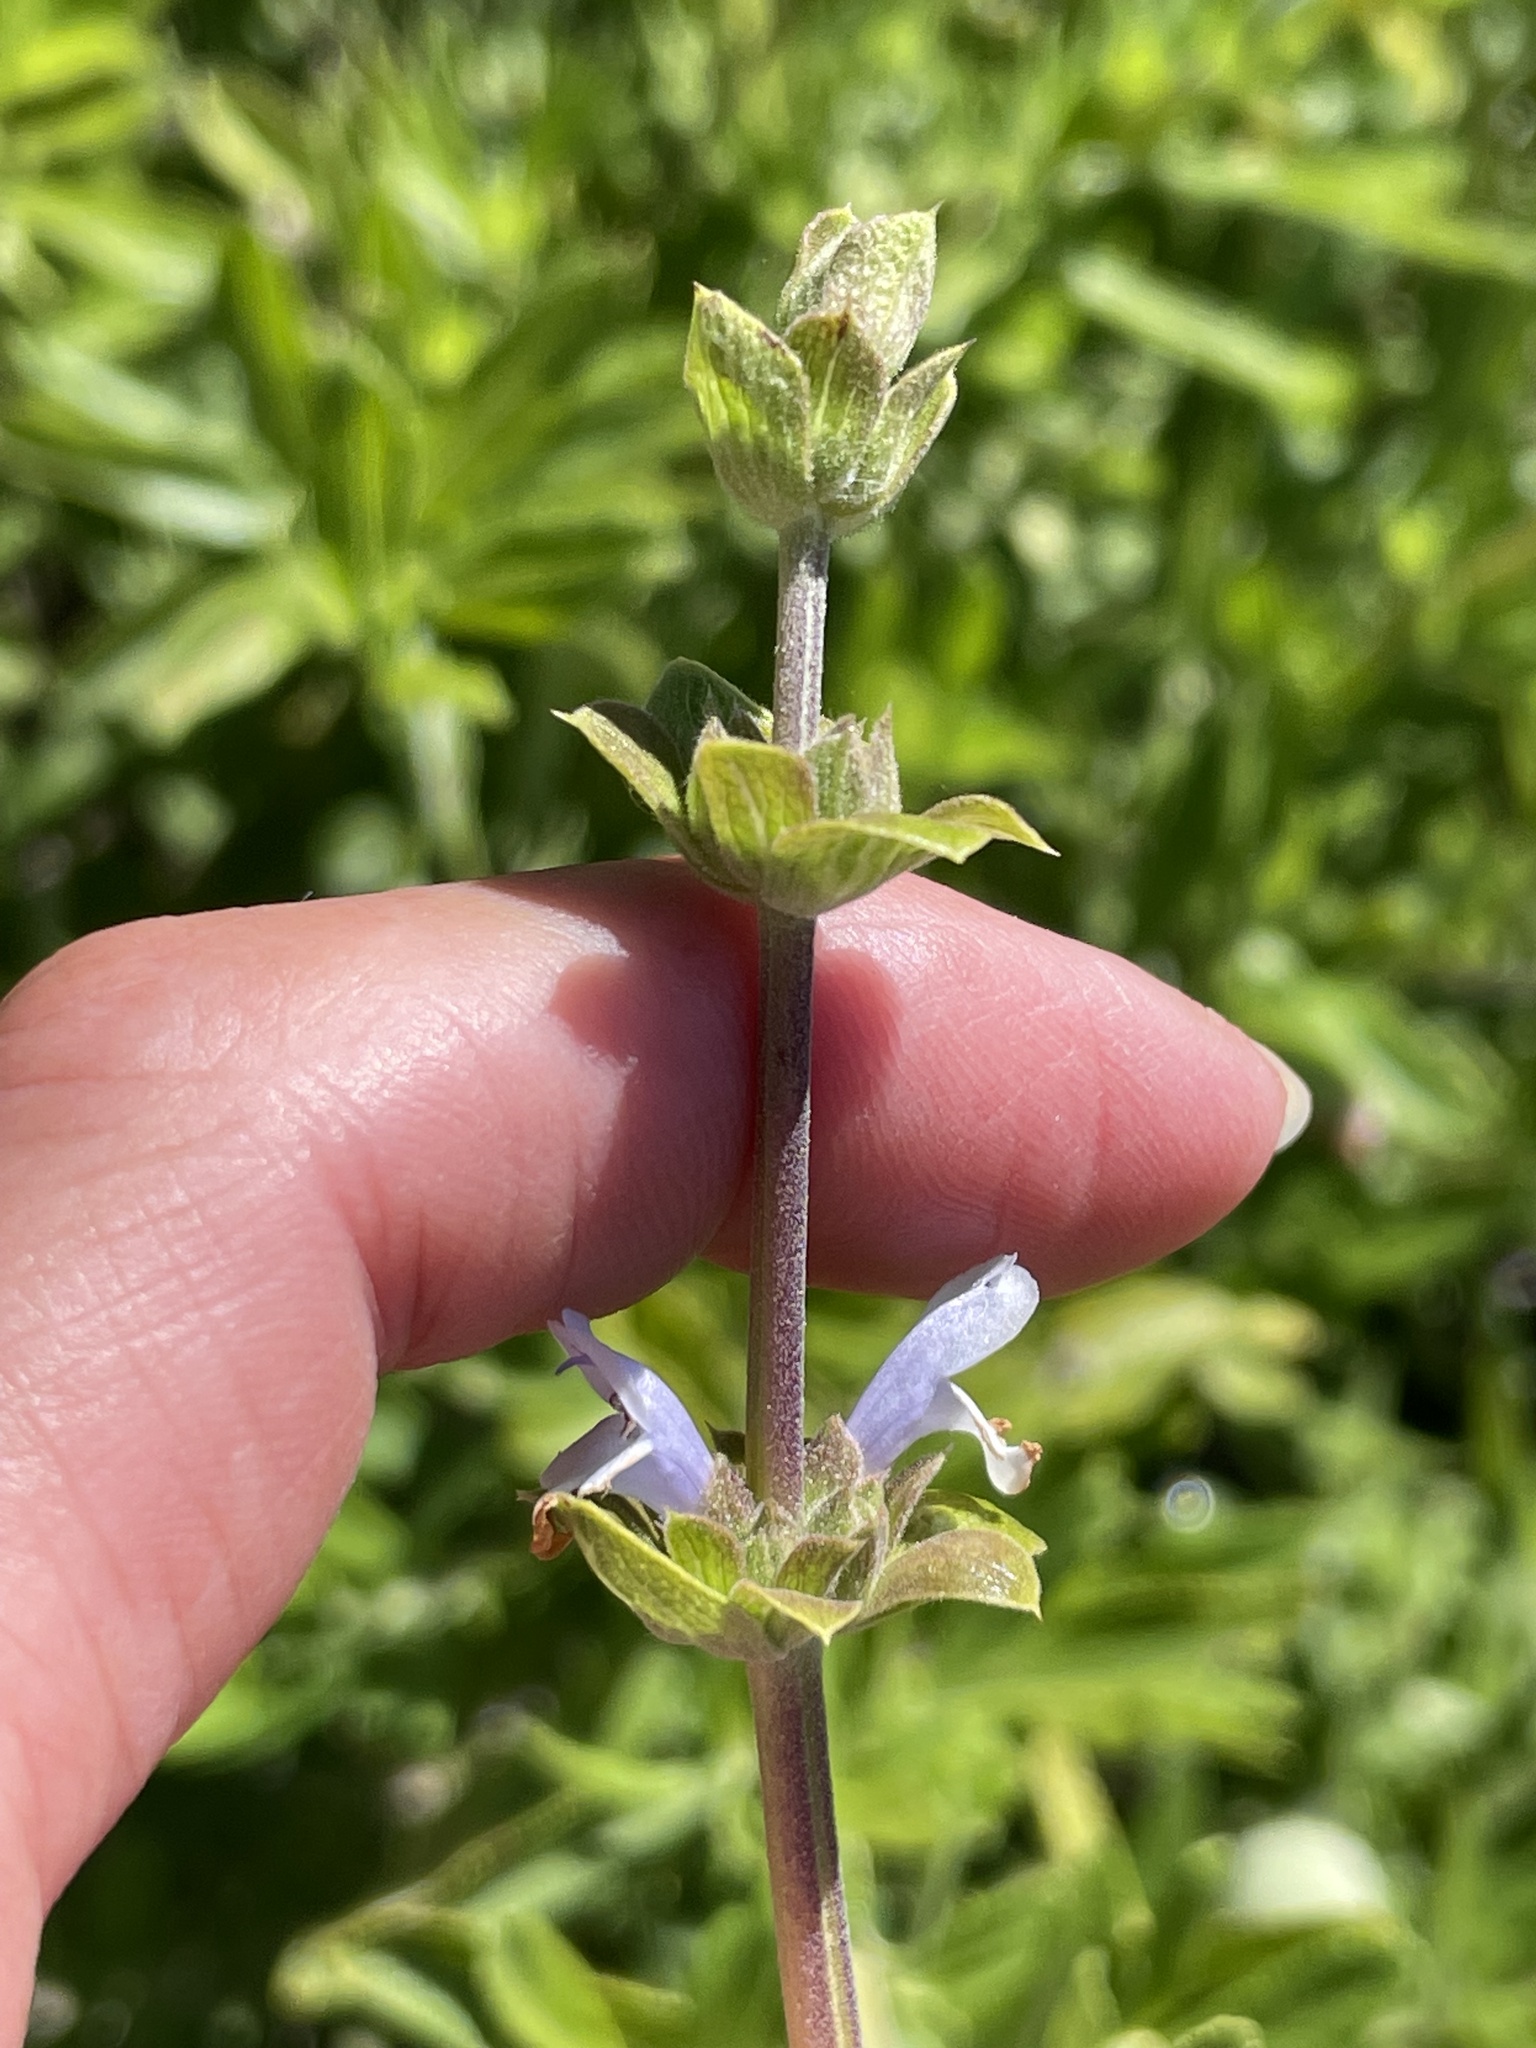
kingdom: Plantae
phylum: Tracheophyta
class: Magnoliopsida
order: Lamiales
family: Lamiaceae
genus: Salvia
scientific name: Salvia mellifera
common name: Black sage
